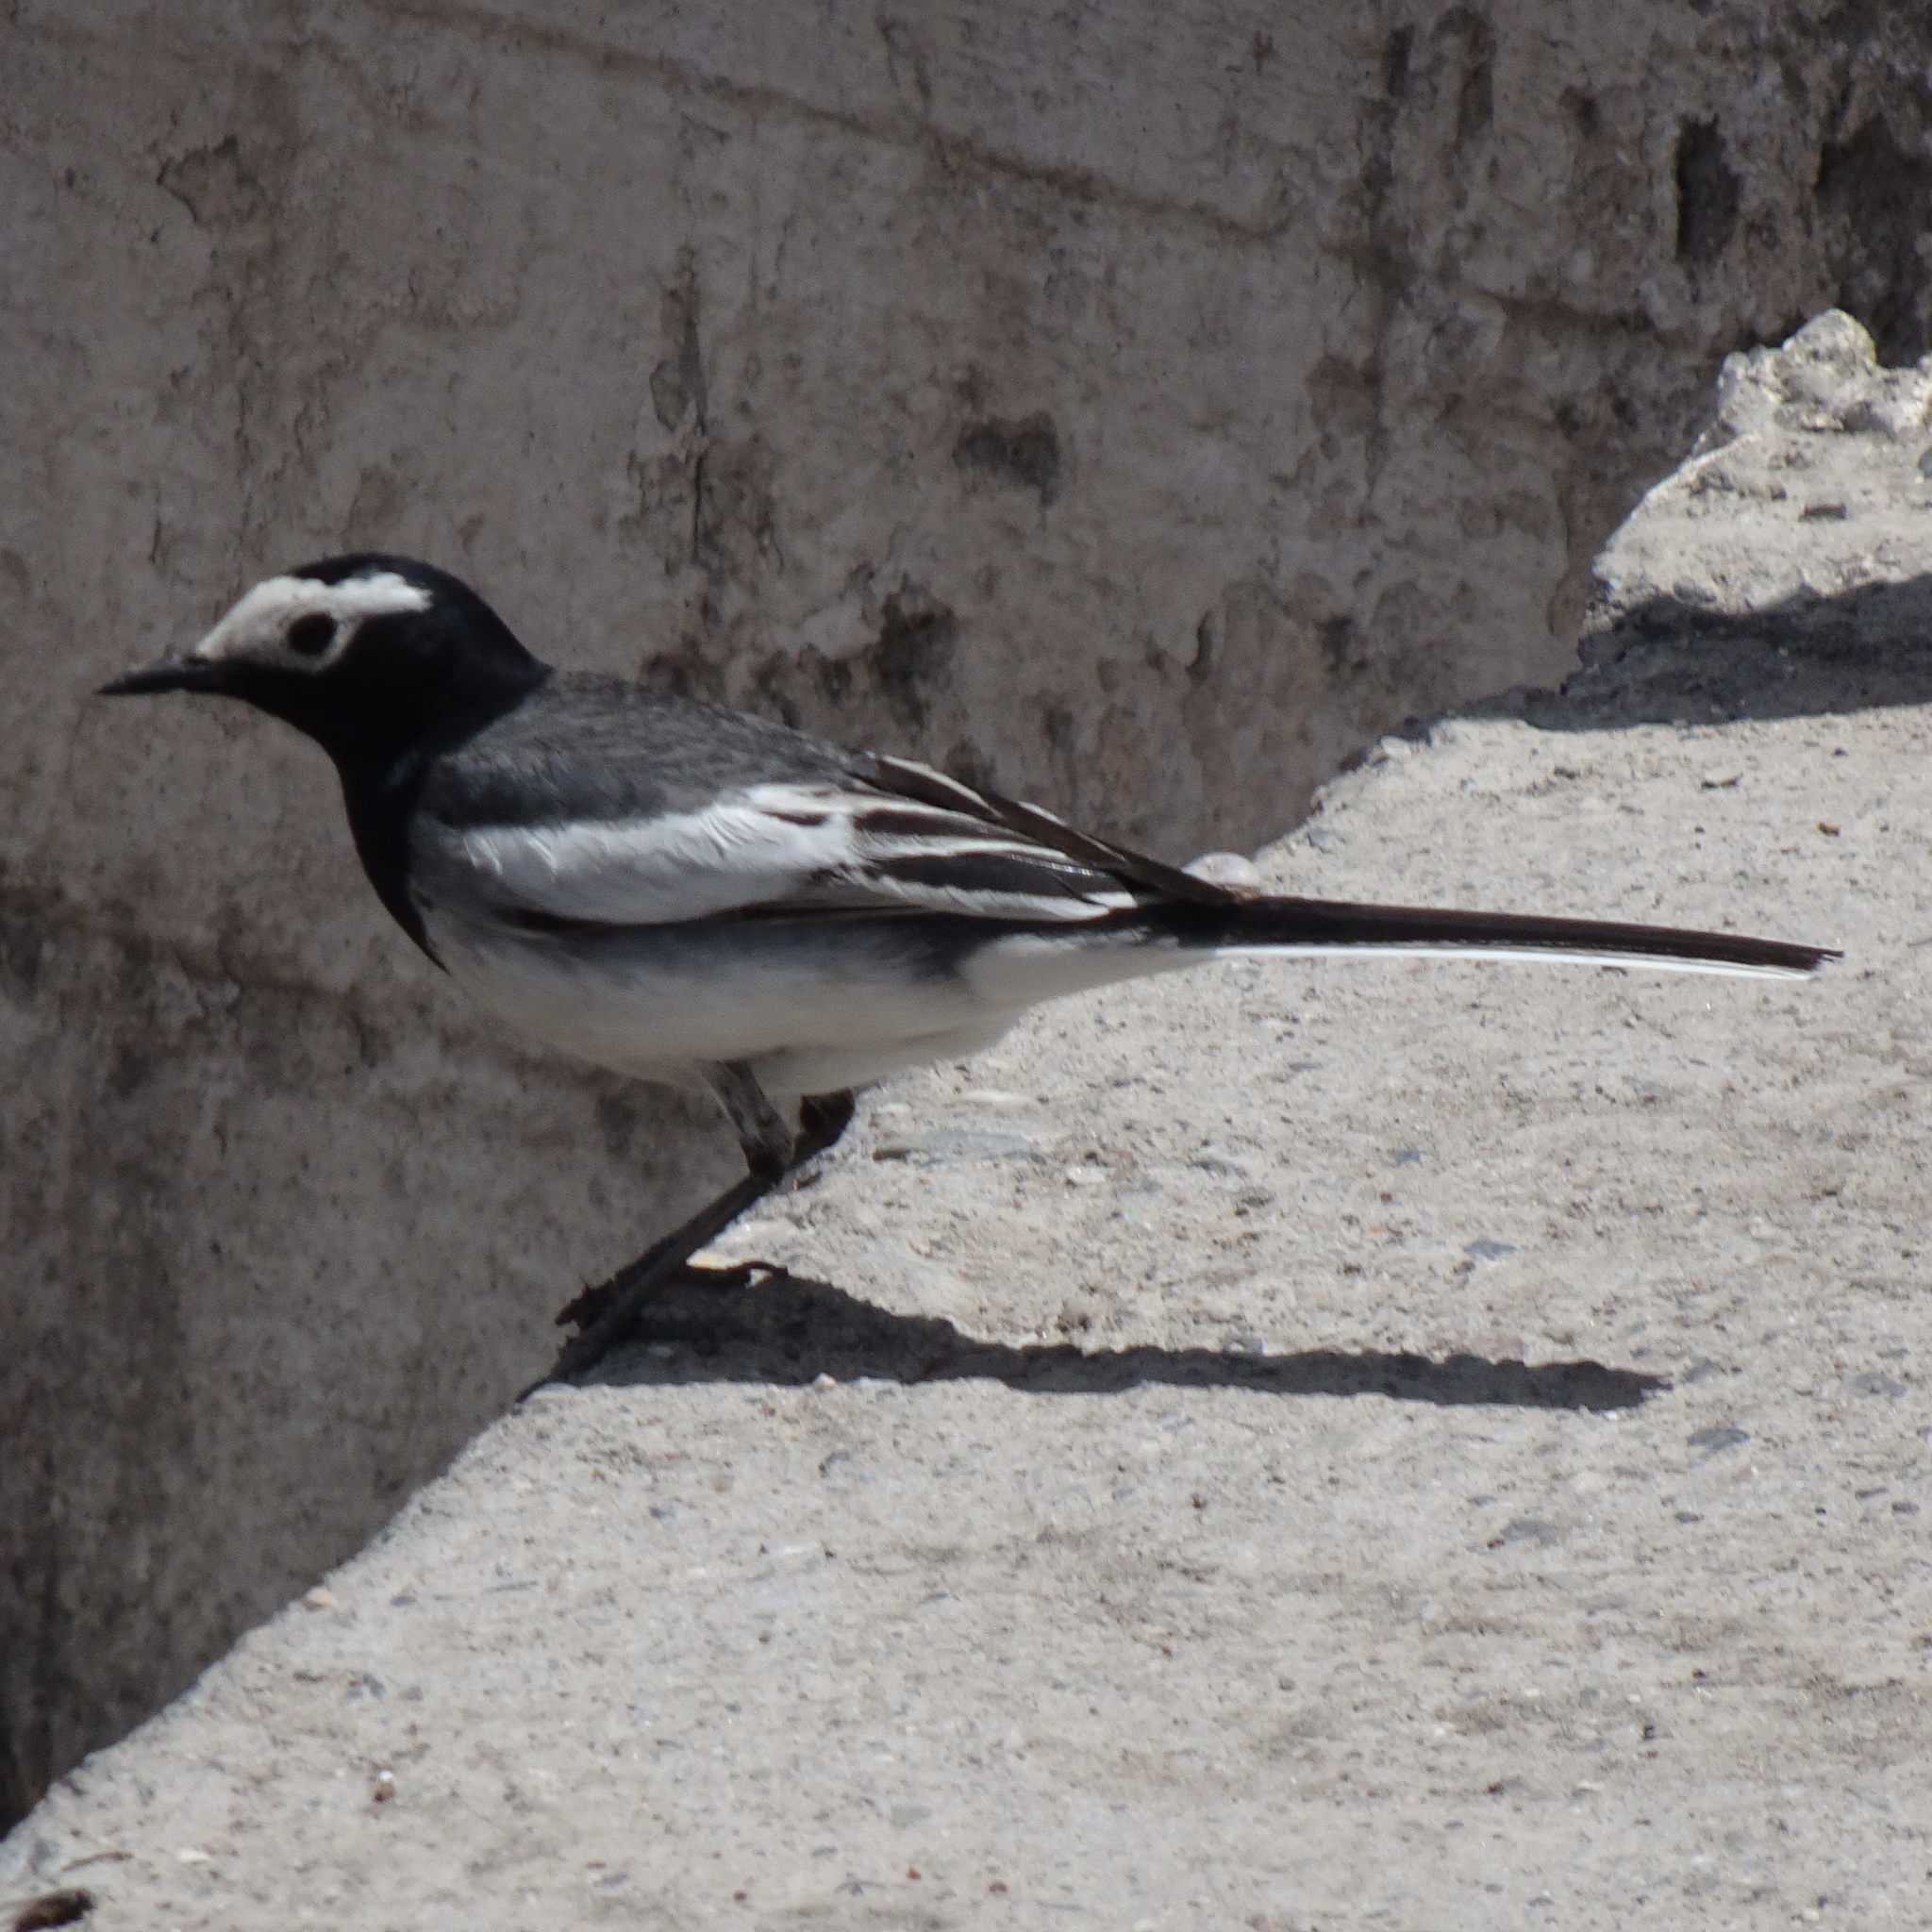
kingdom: Animalia
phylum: Chordata
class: Aves
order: Passeriformes
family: Motacillidae
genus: Motacilla
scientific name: Motacilla alba
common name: White wagtail
